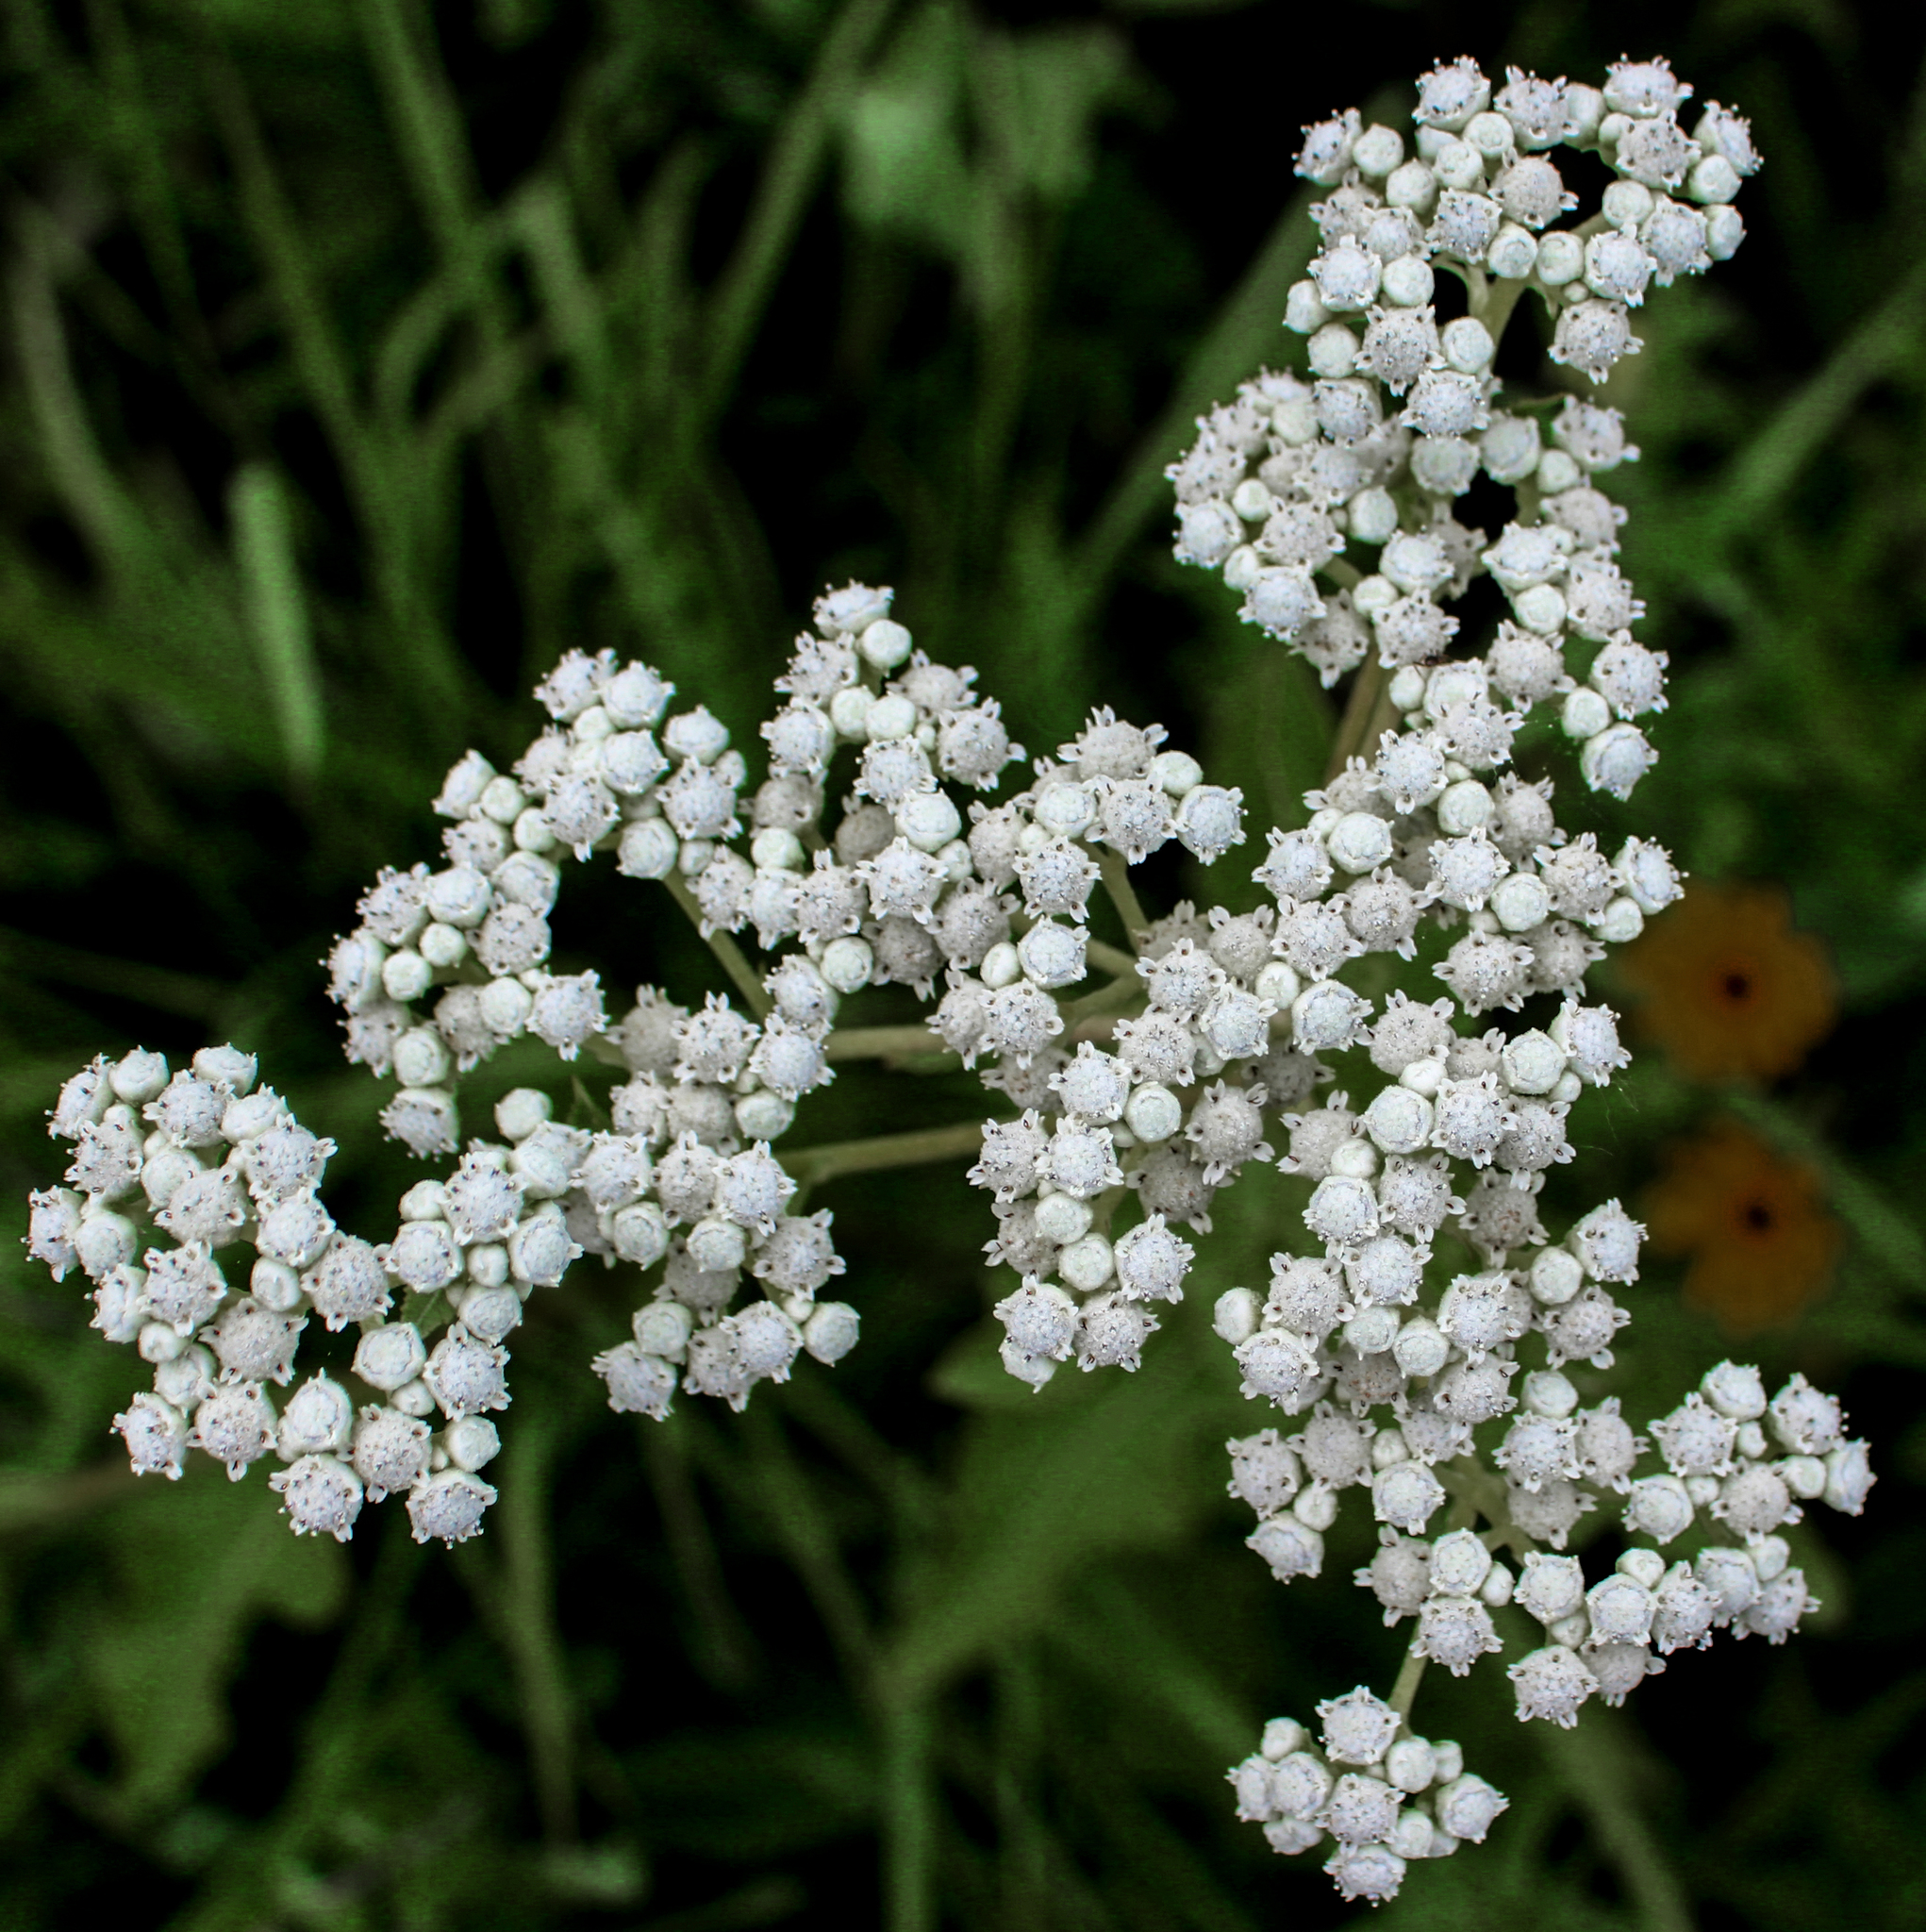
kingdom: Plantae
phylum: Tracheophyta
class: Magnoliopsida
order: Asterales
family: Asteraceae
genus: Parthenium
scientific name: Parthenium integrifolium
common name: American feverfew
